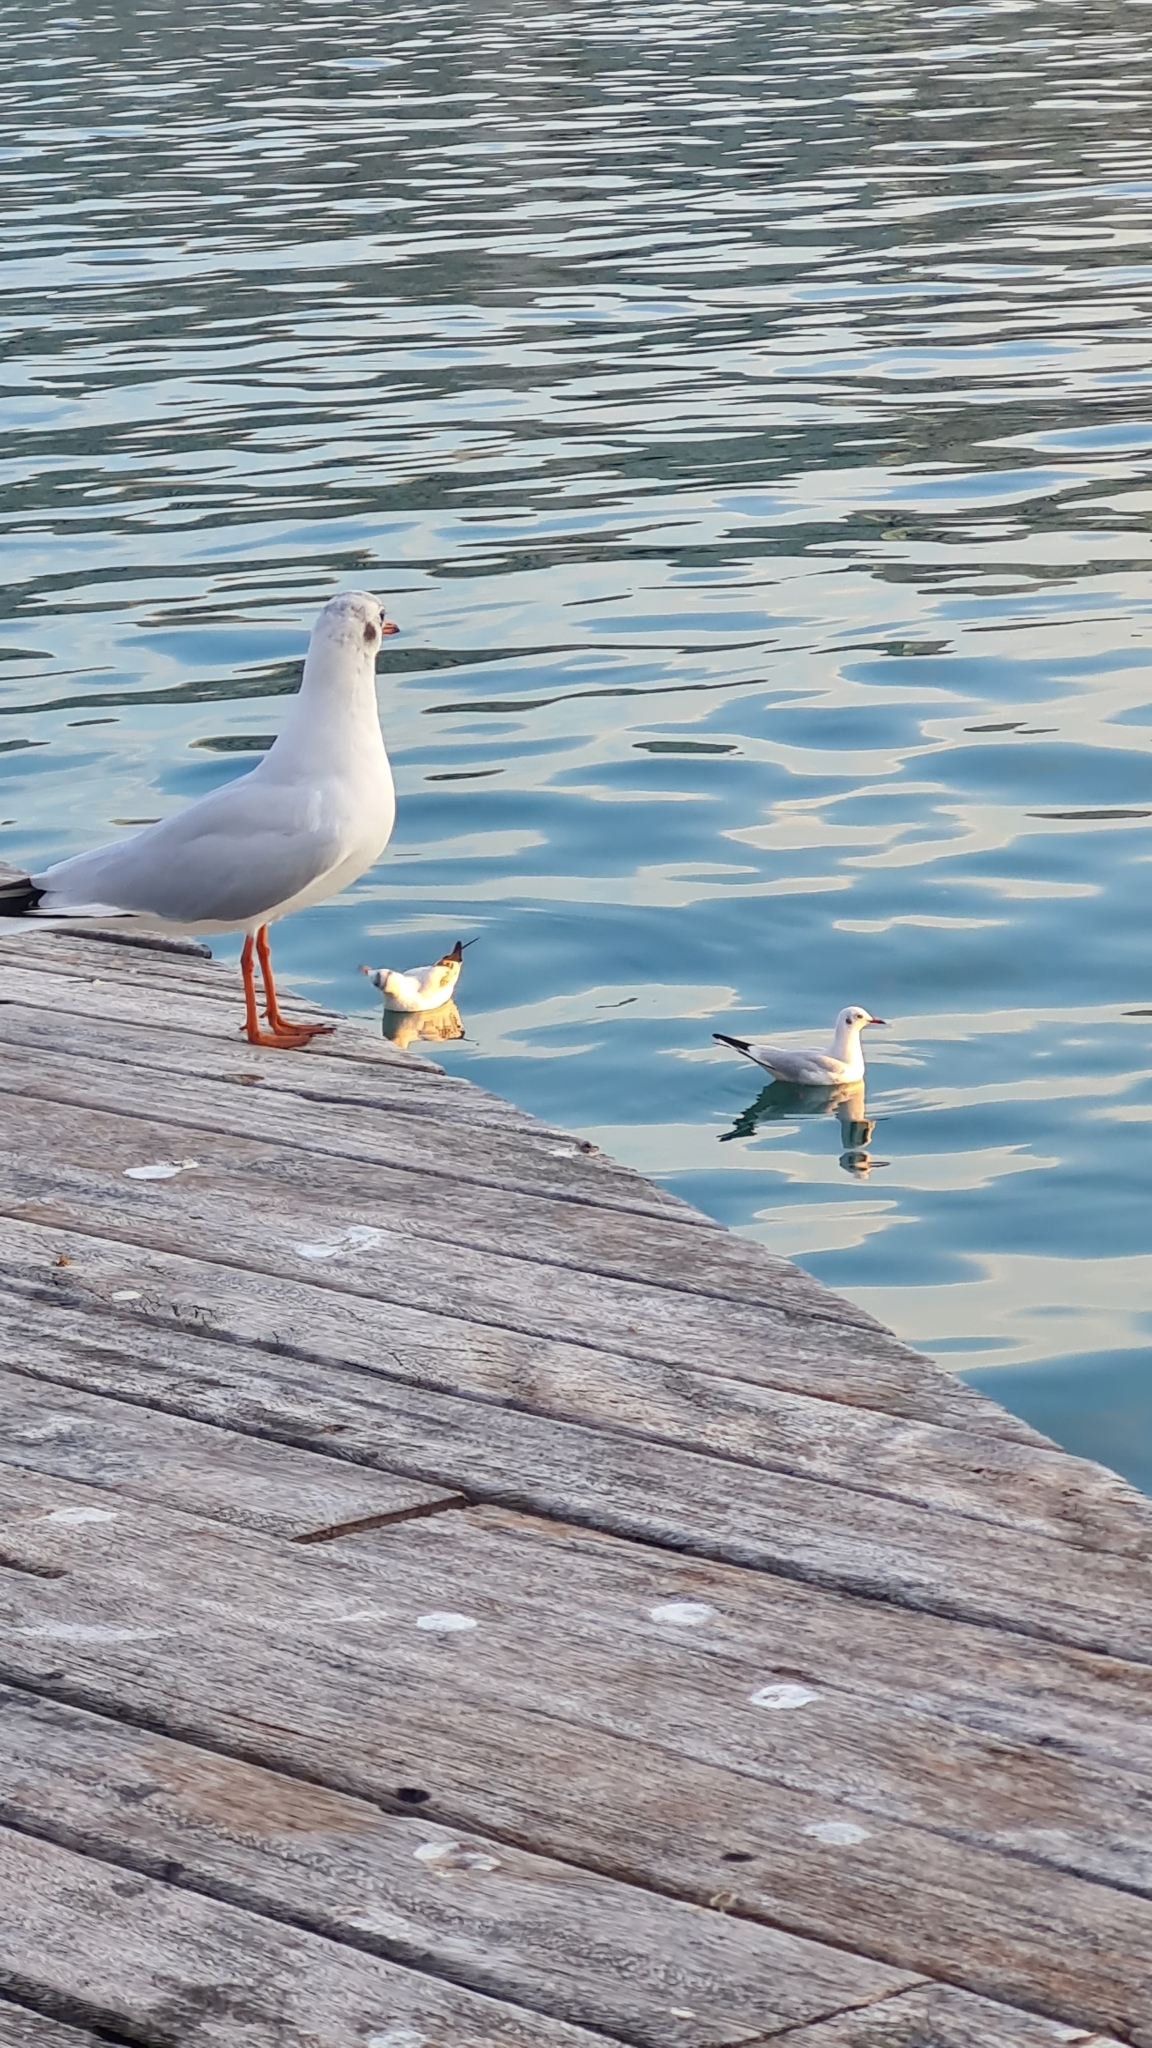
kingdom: Animalia
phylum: Chordata
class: Aves
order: Charadriiformes
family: Laridae
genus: Chroicocephalus
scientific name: Chroicocephalus ridibundus
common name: Black-headed gull
